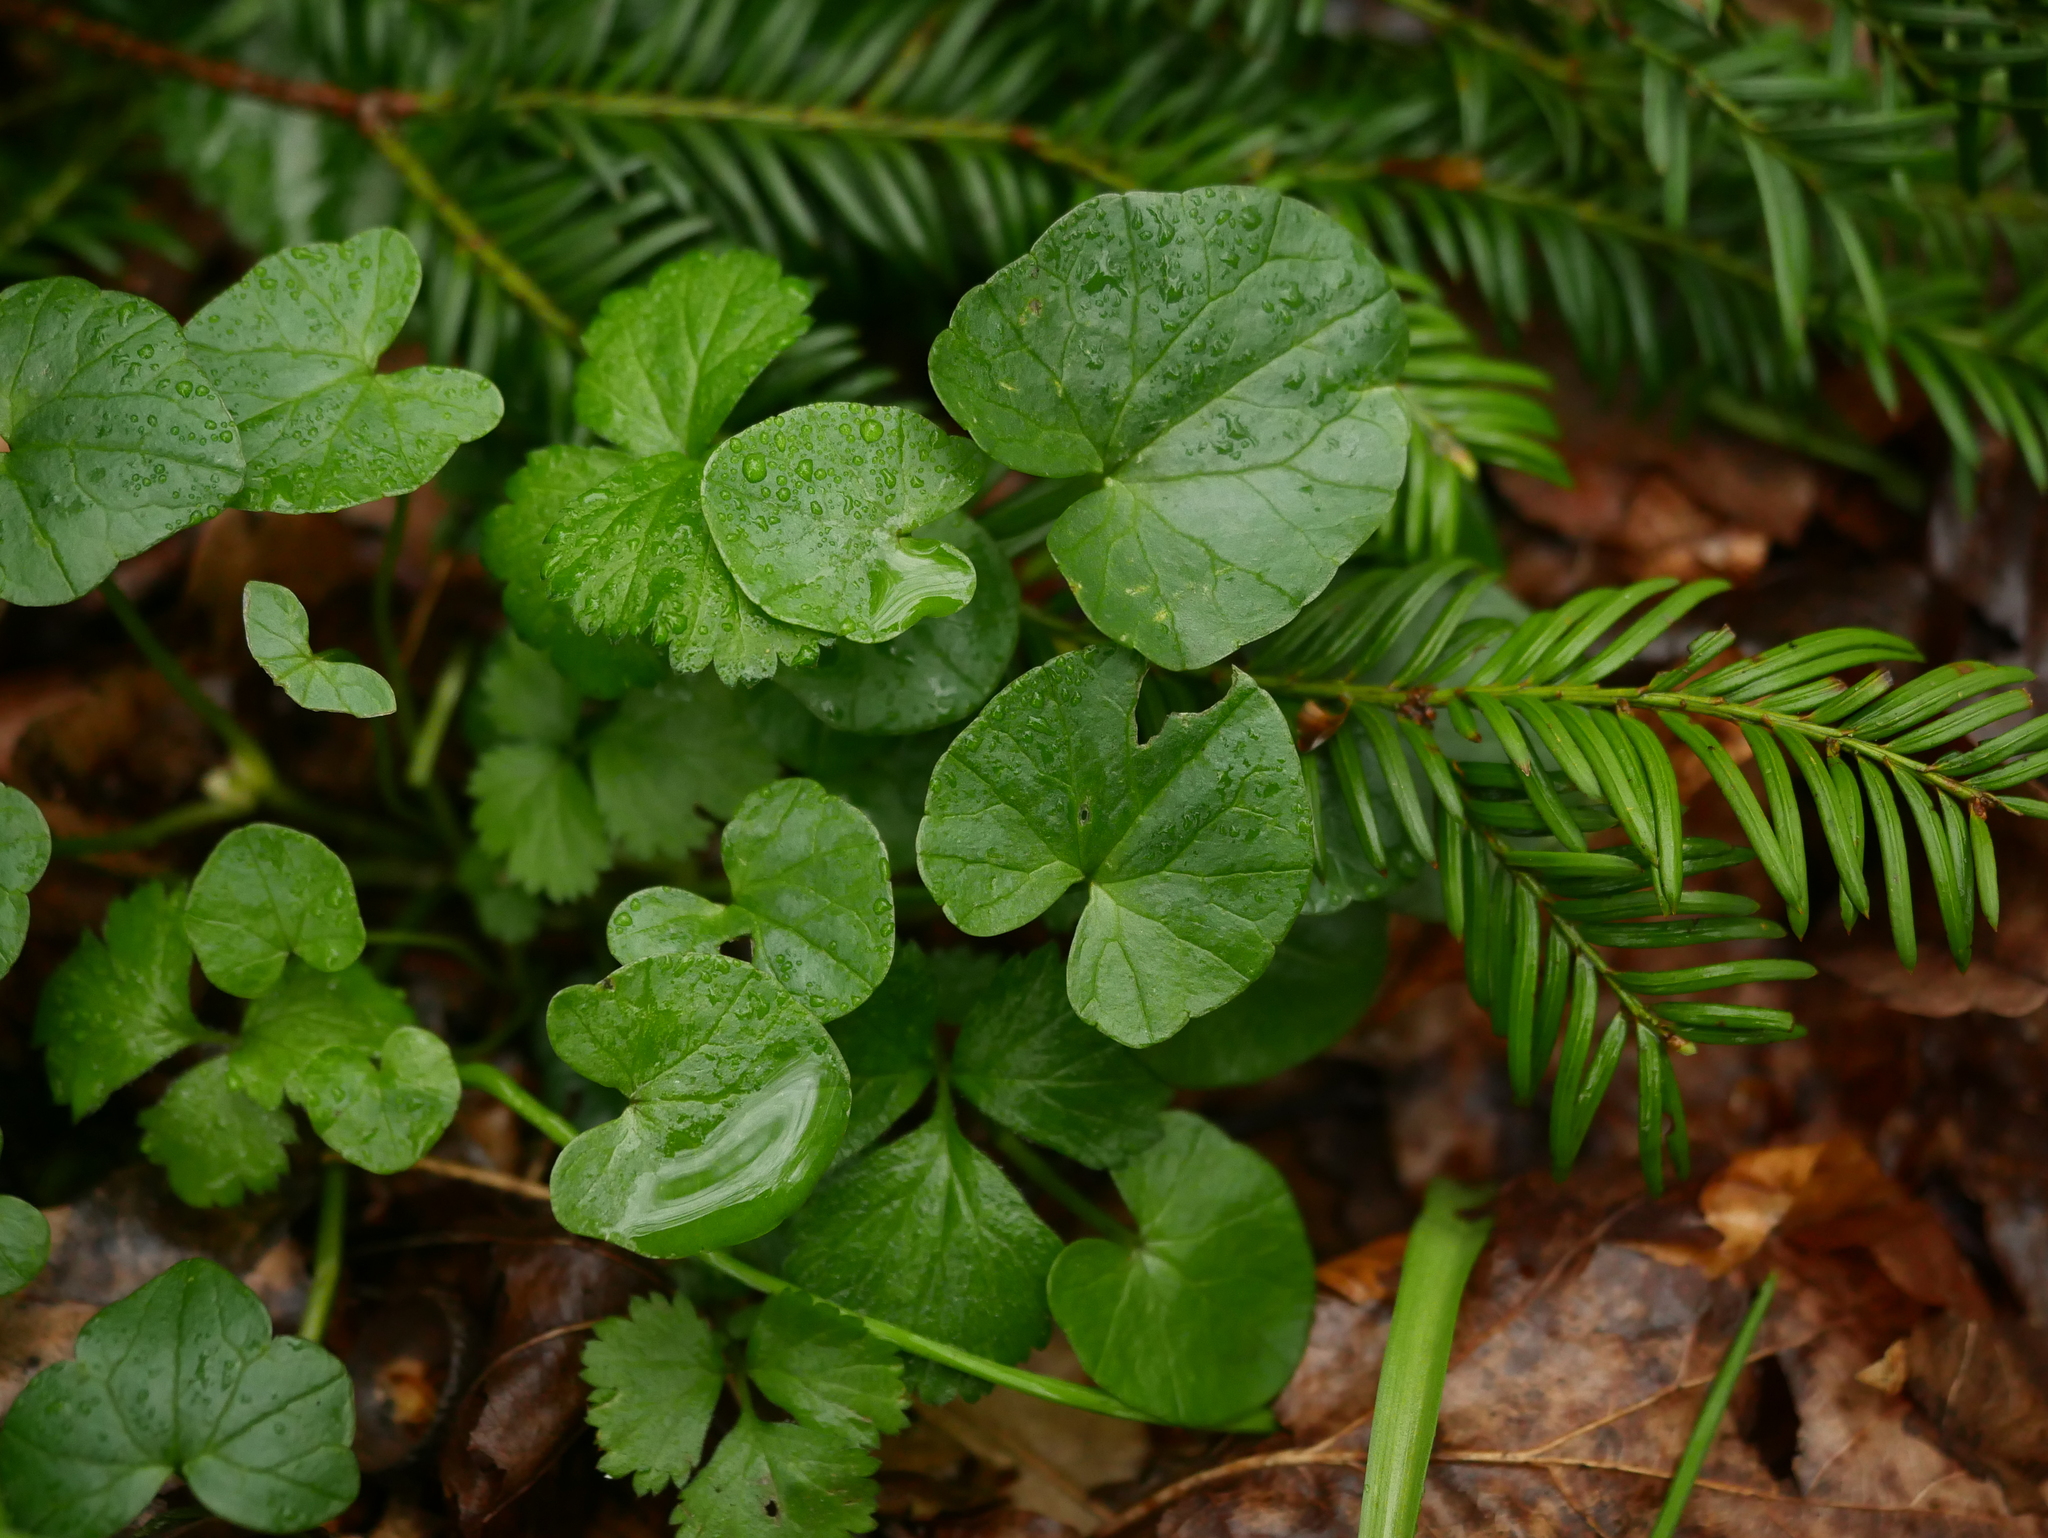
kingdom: Plantae
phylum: Tracheophyta
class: Magnoliopsida
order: Ranunculales
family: Ranunculaceae
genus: Ficaria
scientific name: Ficaria verna
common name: Lesser celandine
